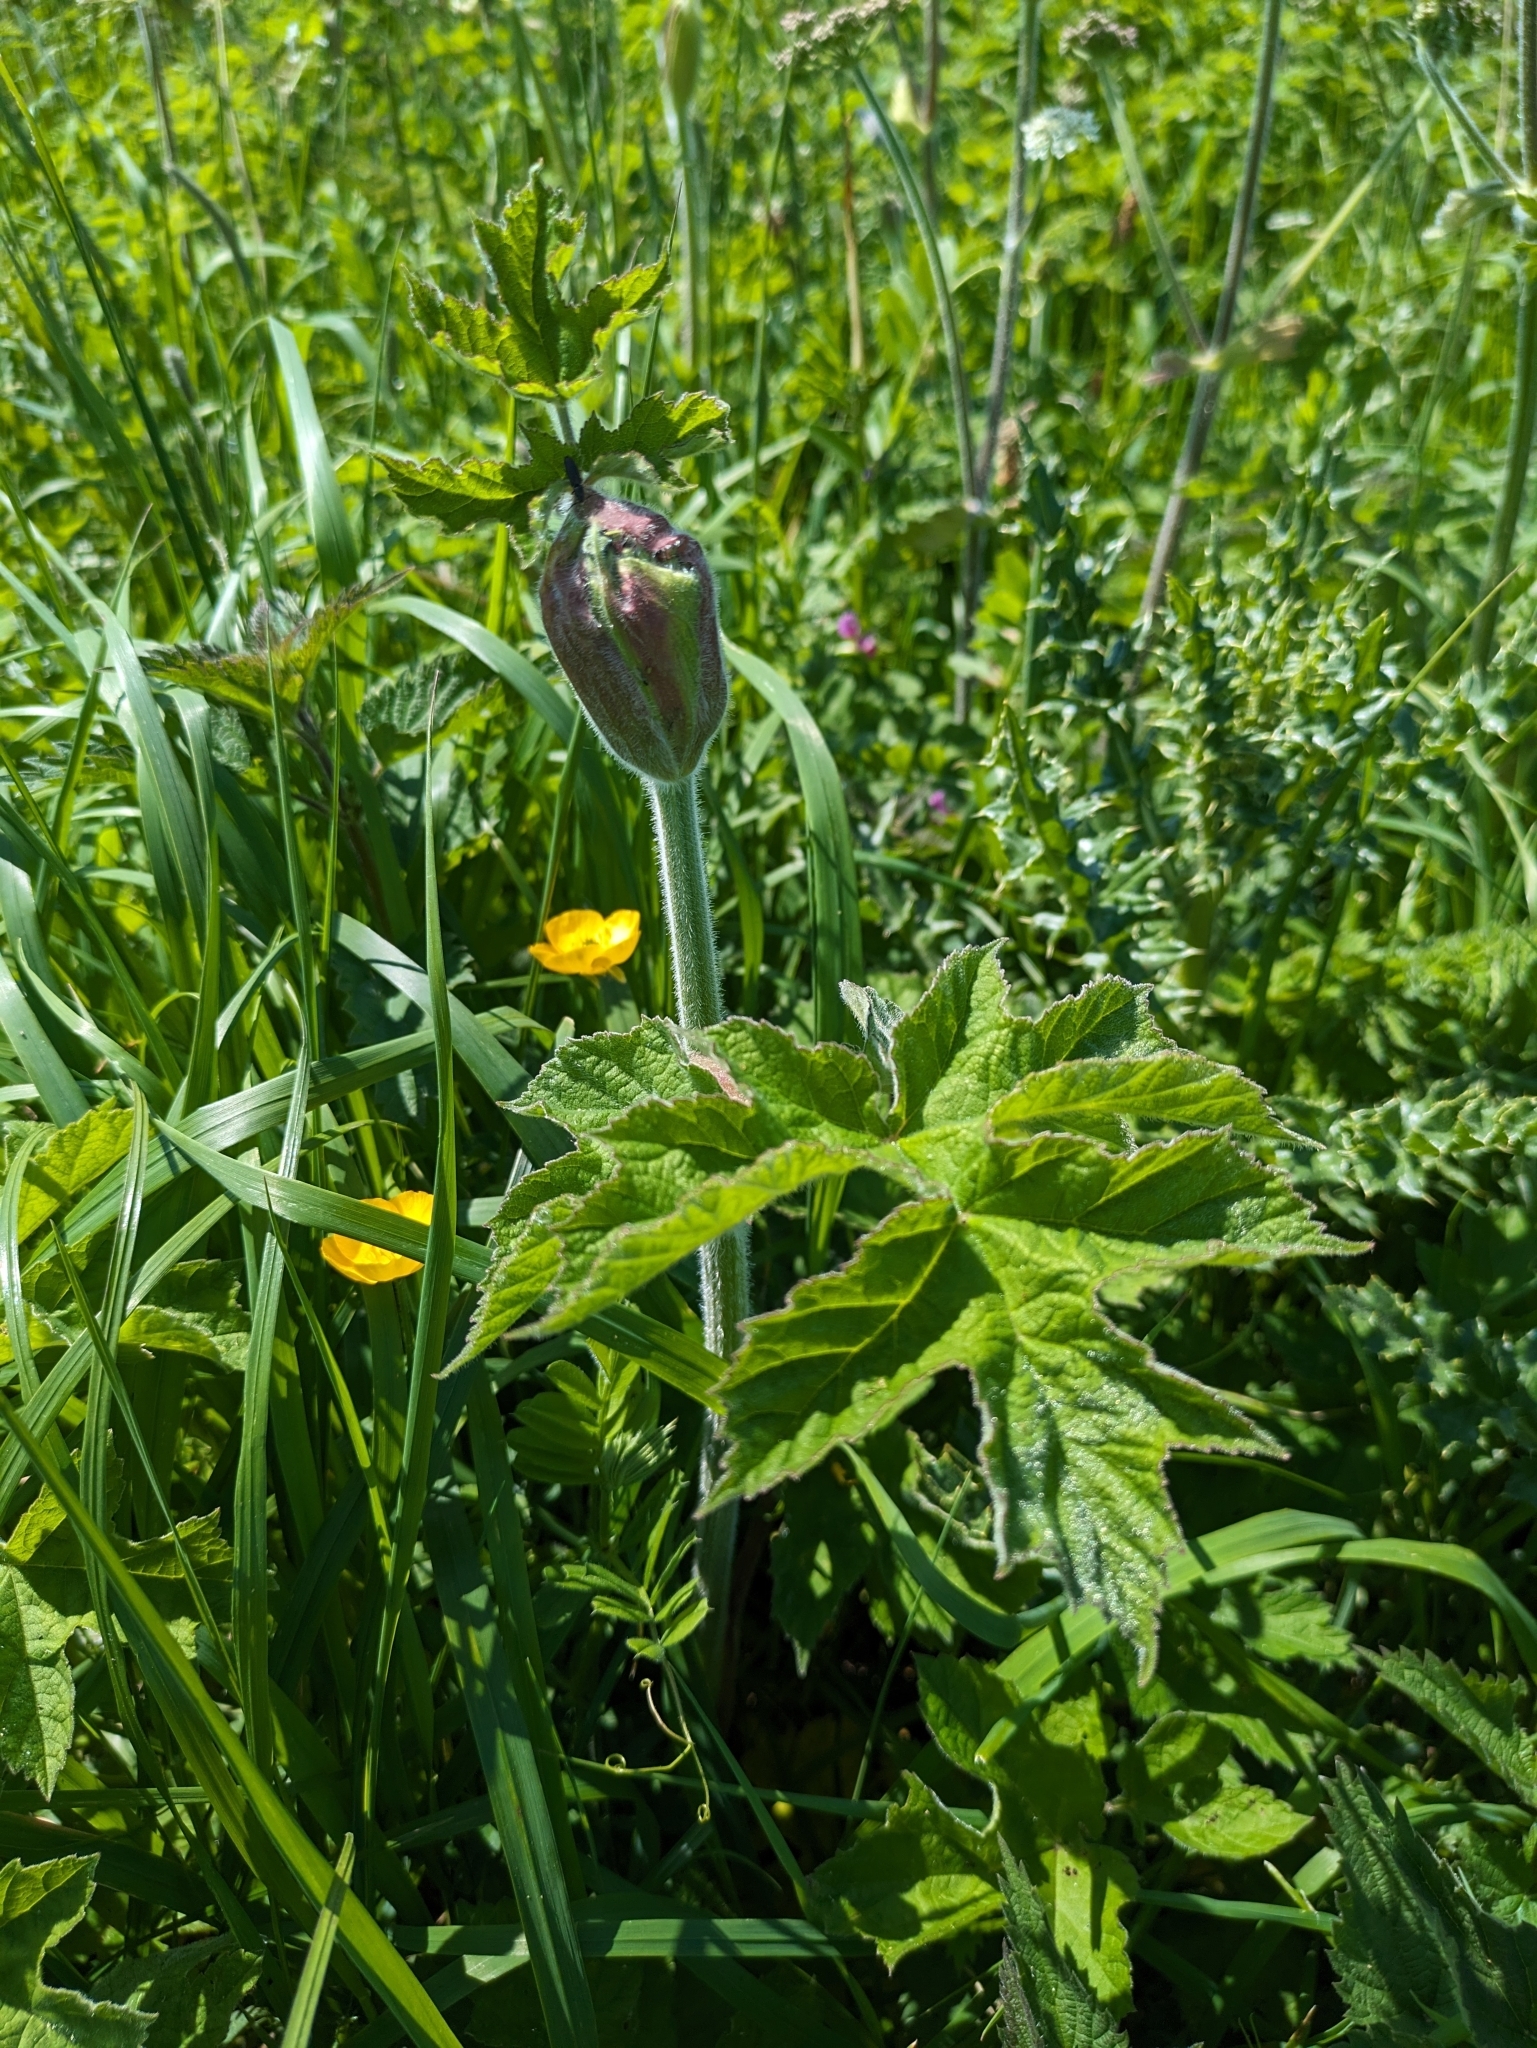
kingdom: Plantae
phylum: Tracheophyta
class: Magnoliopsida
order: Apiales
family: Apiaceae
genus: Heracleum
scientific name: Heracleum sphondylium
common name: Hogweed
